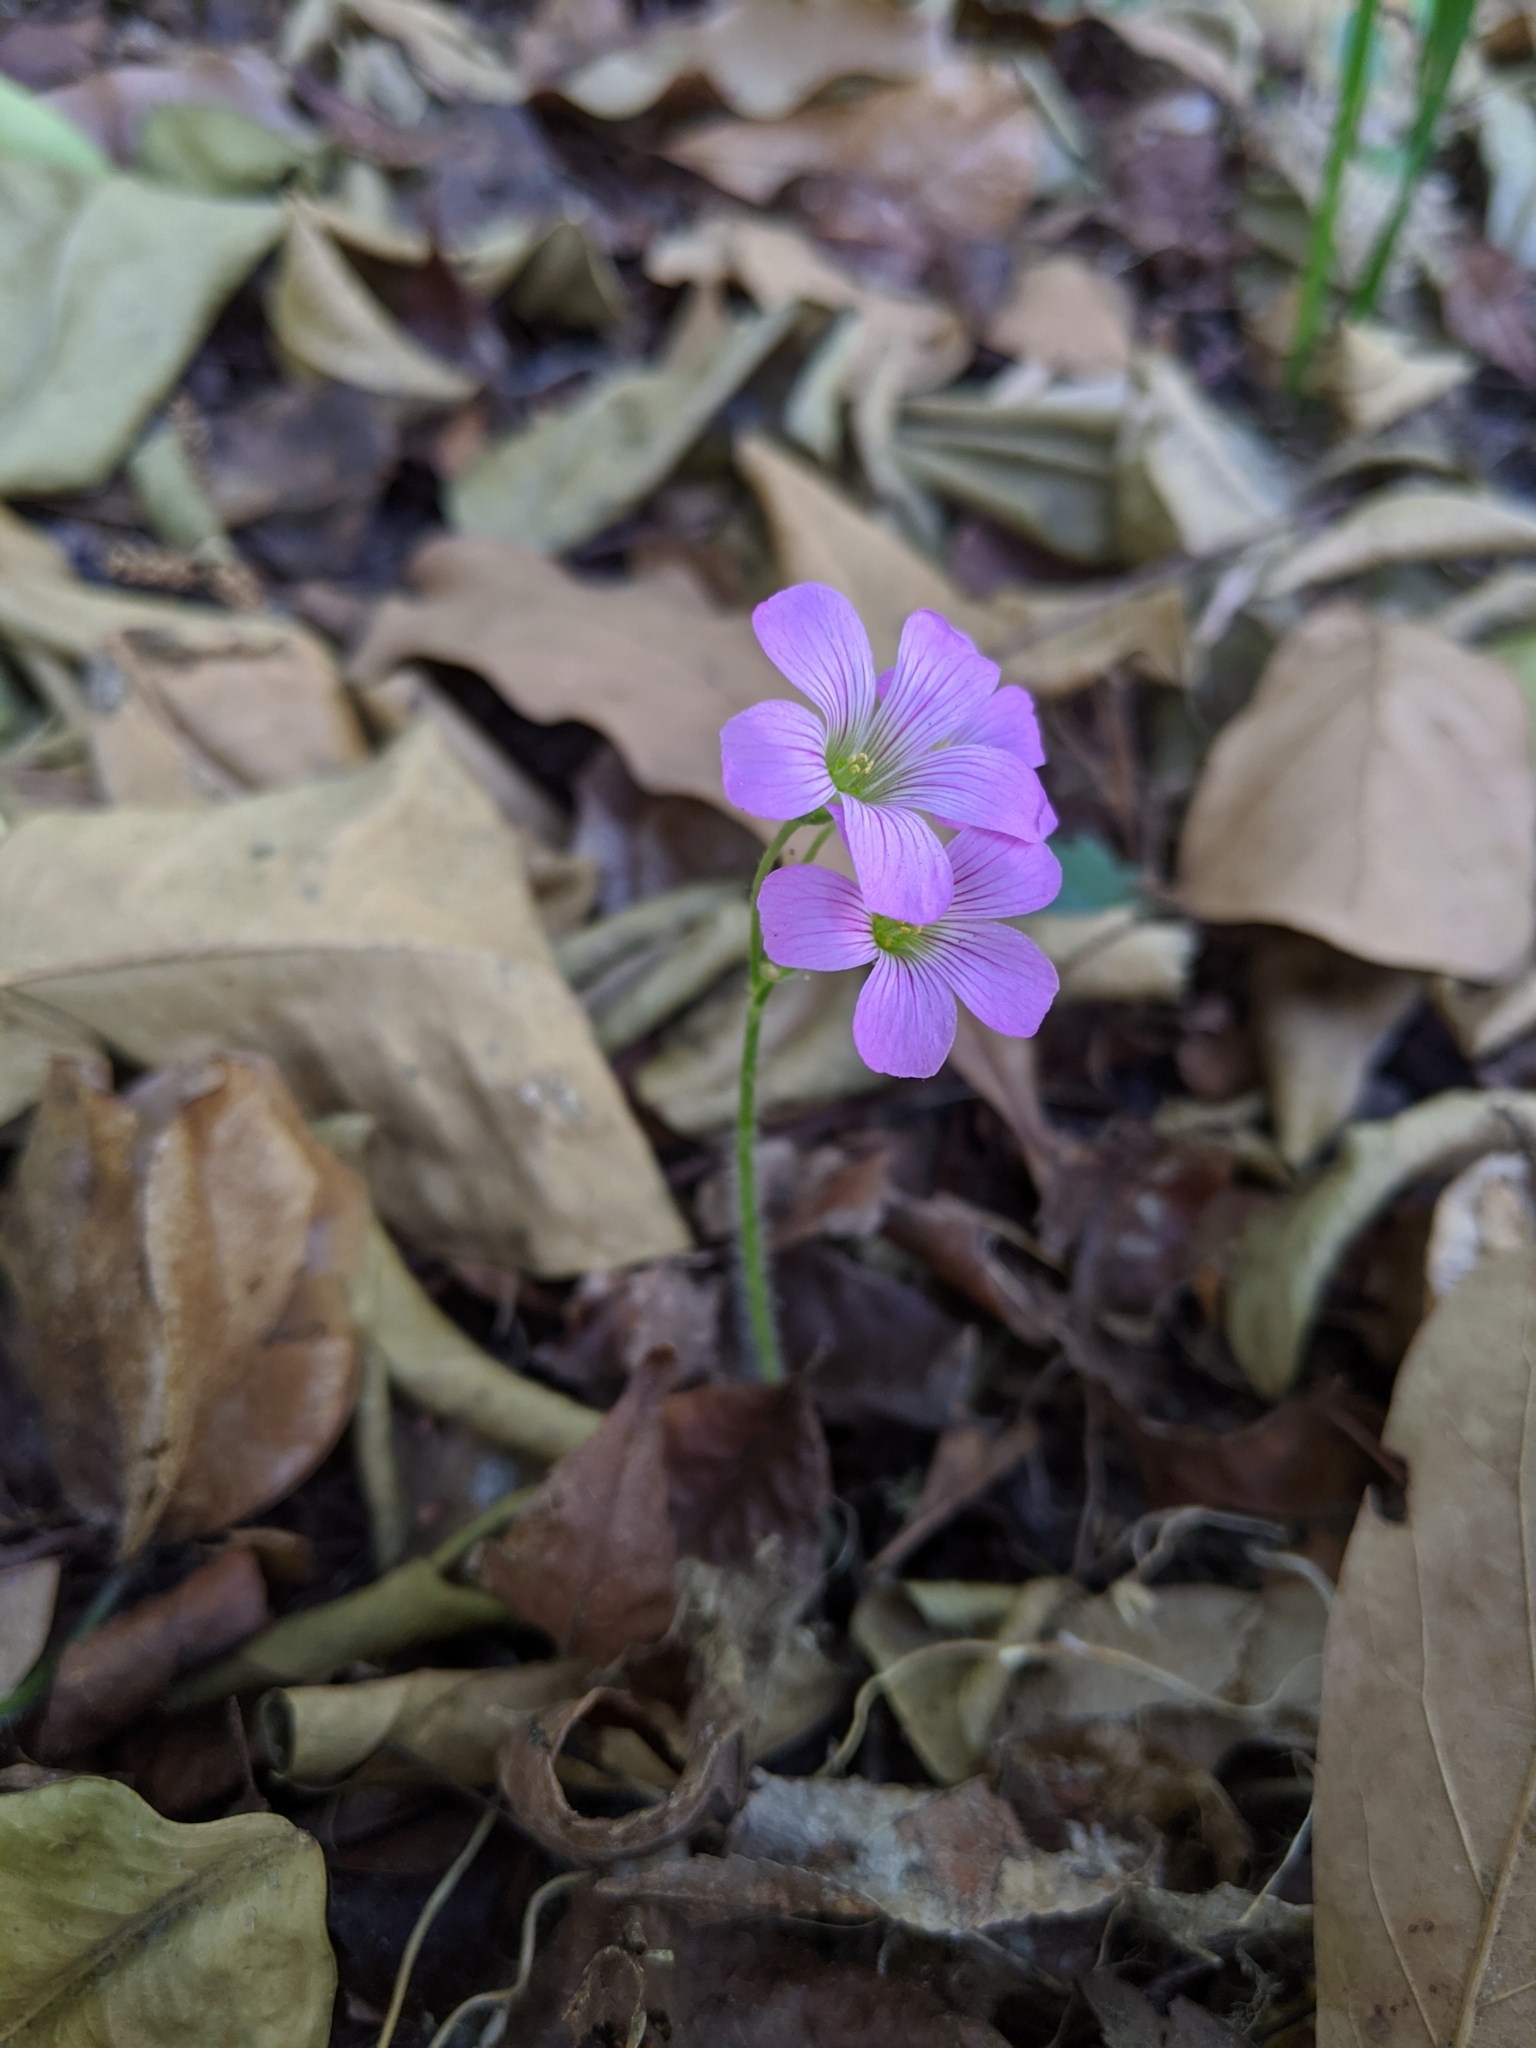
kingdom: Plantae
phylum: Tracheophyta
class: Magnoliopsida
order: Oxalidales
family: Oxalidaceae
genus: Oxalis
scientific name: Oxalis debilis
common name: Large-flowered pink-sorrel
